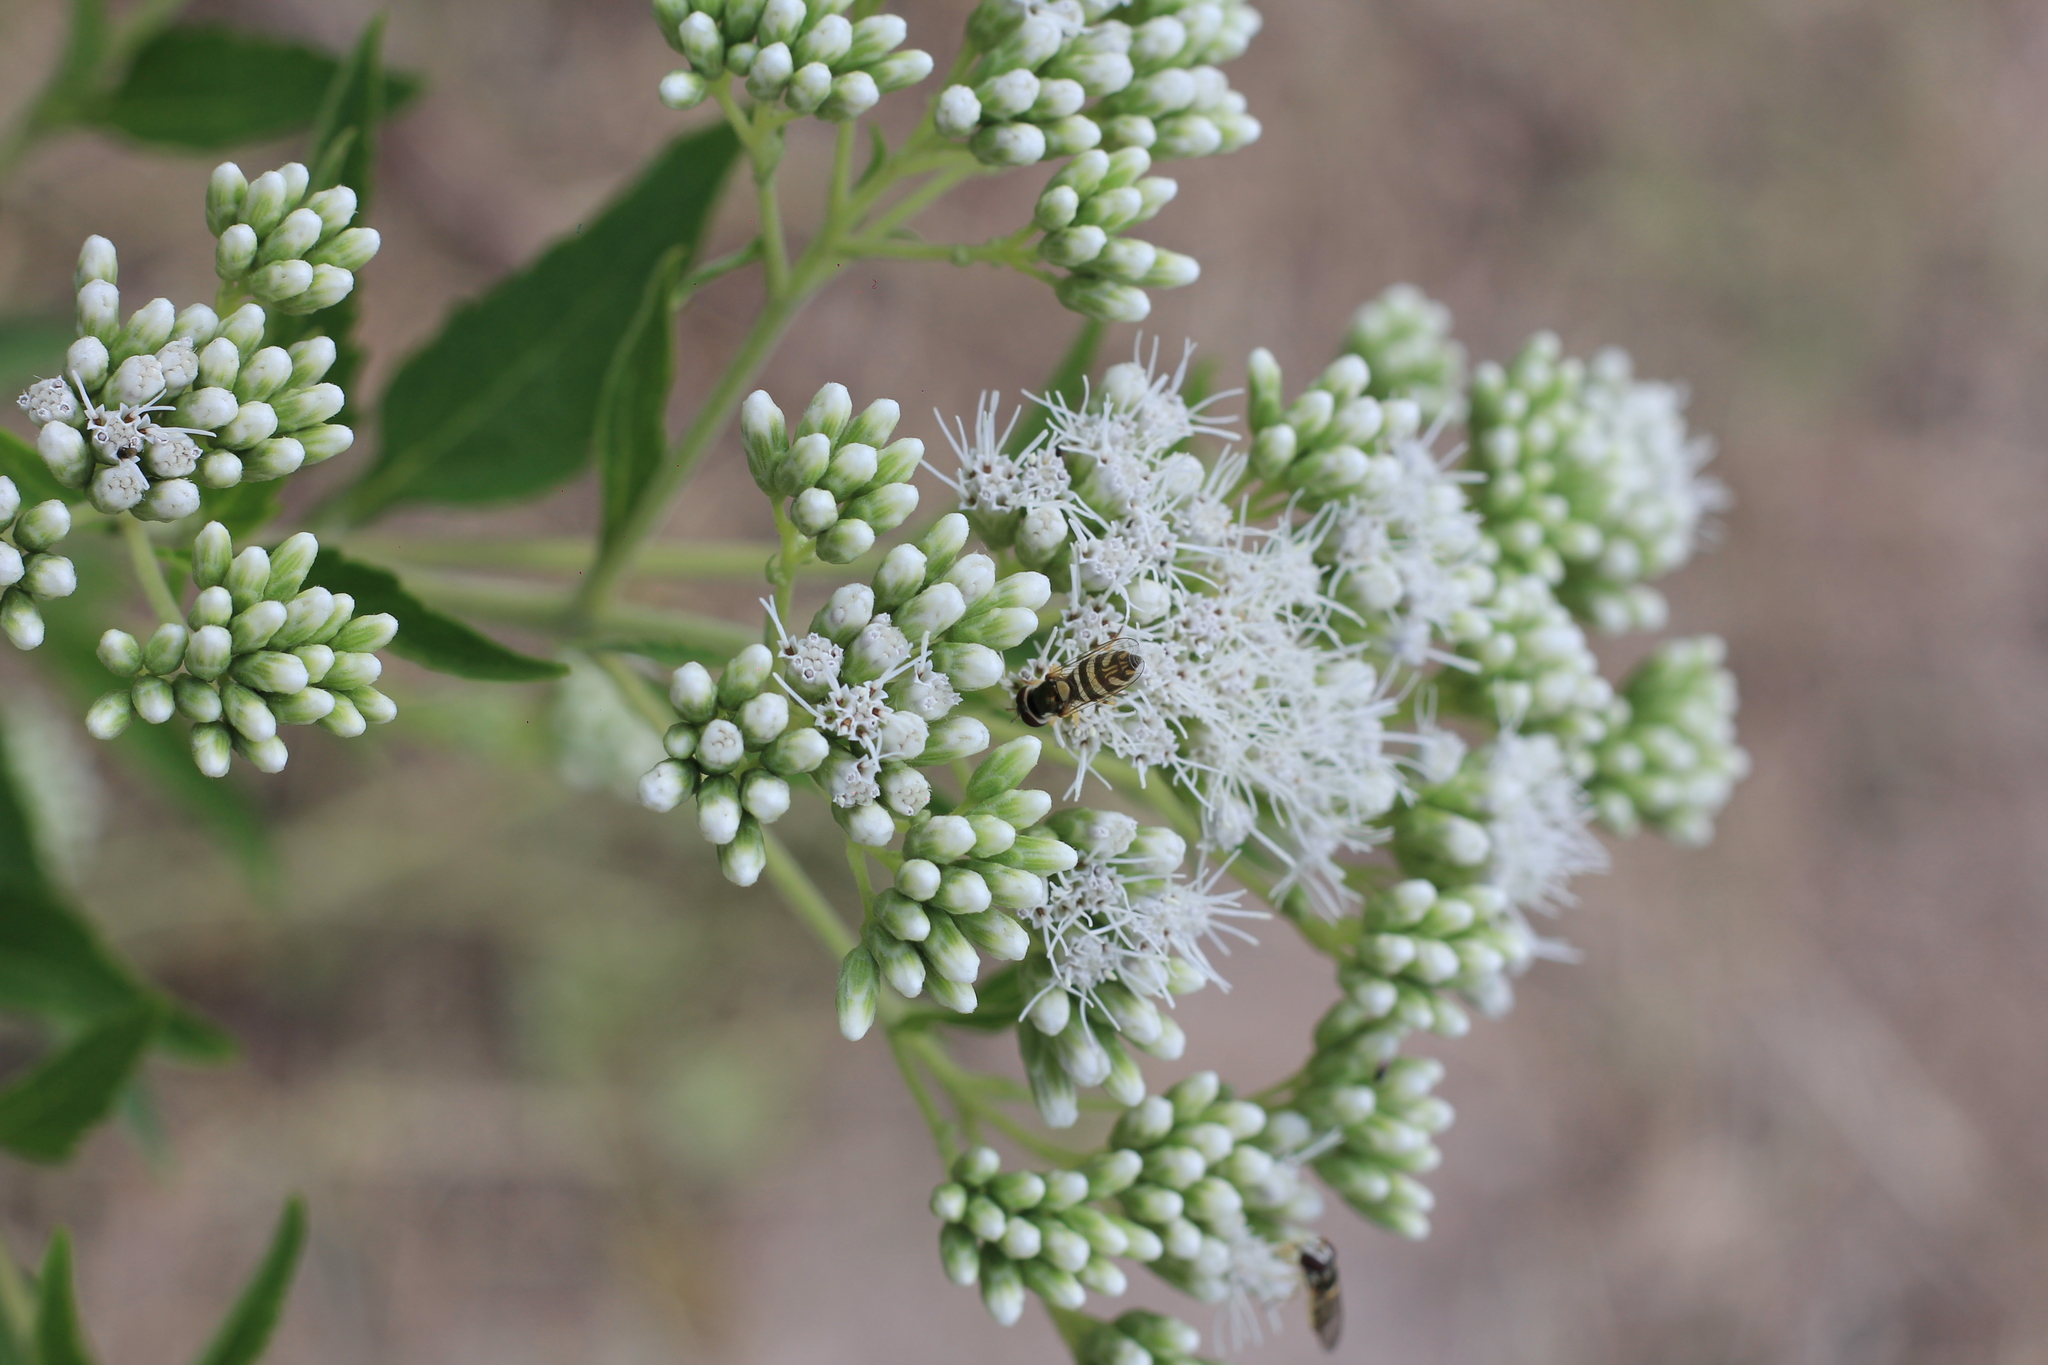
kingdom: Plantae
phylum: Tracheophyta
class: Magnoliopsida
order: Asterales
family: Asteraceae
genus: Austroeupatorium
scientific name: Austroeupatorium inulifolium
